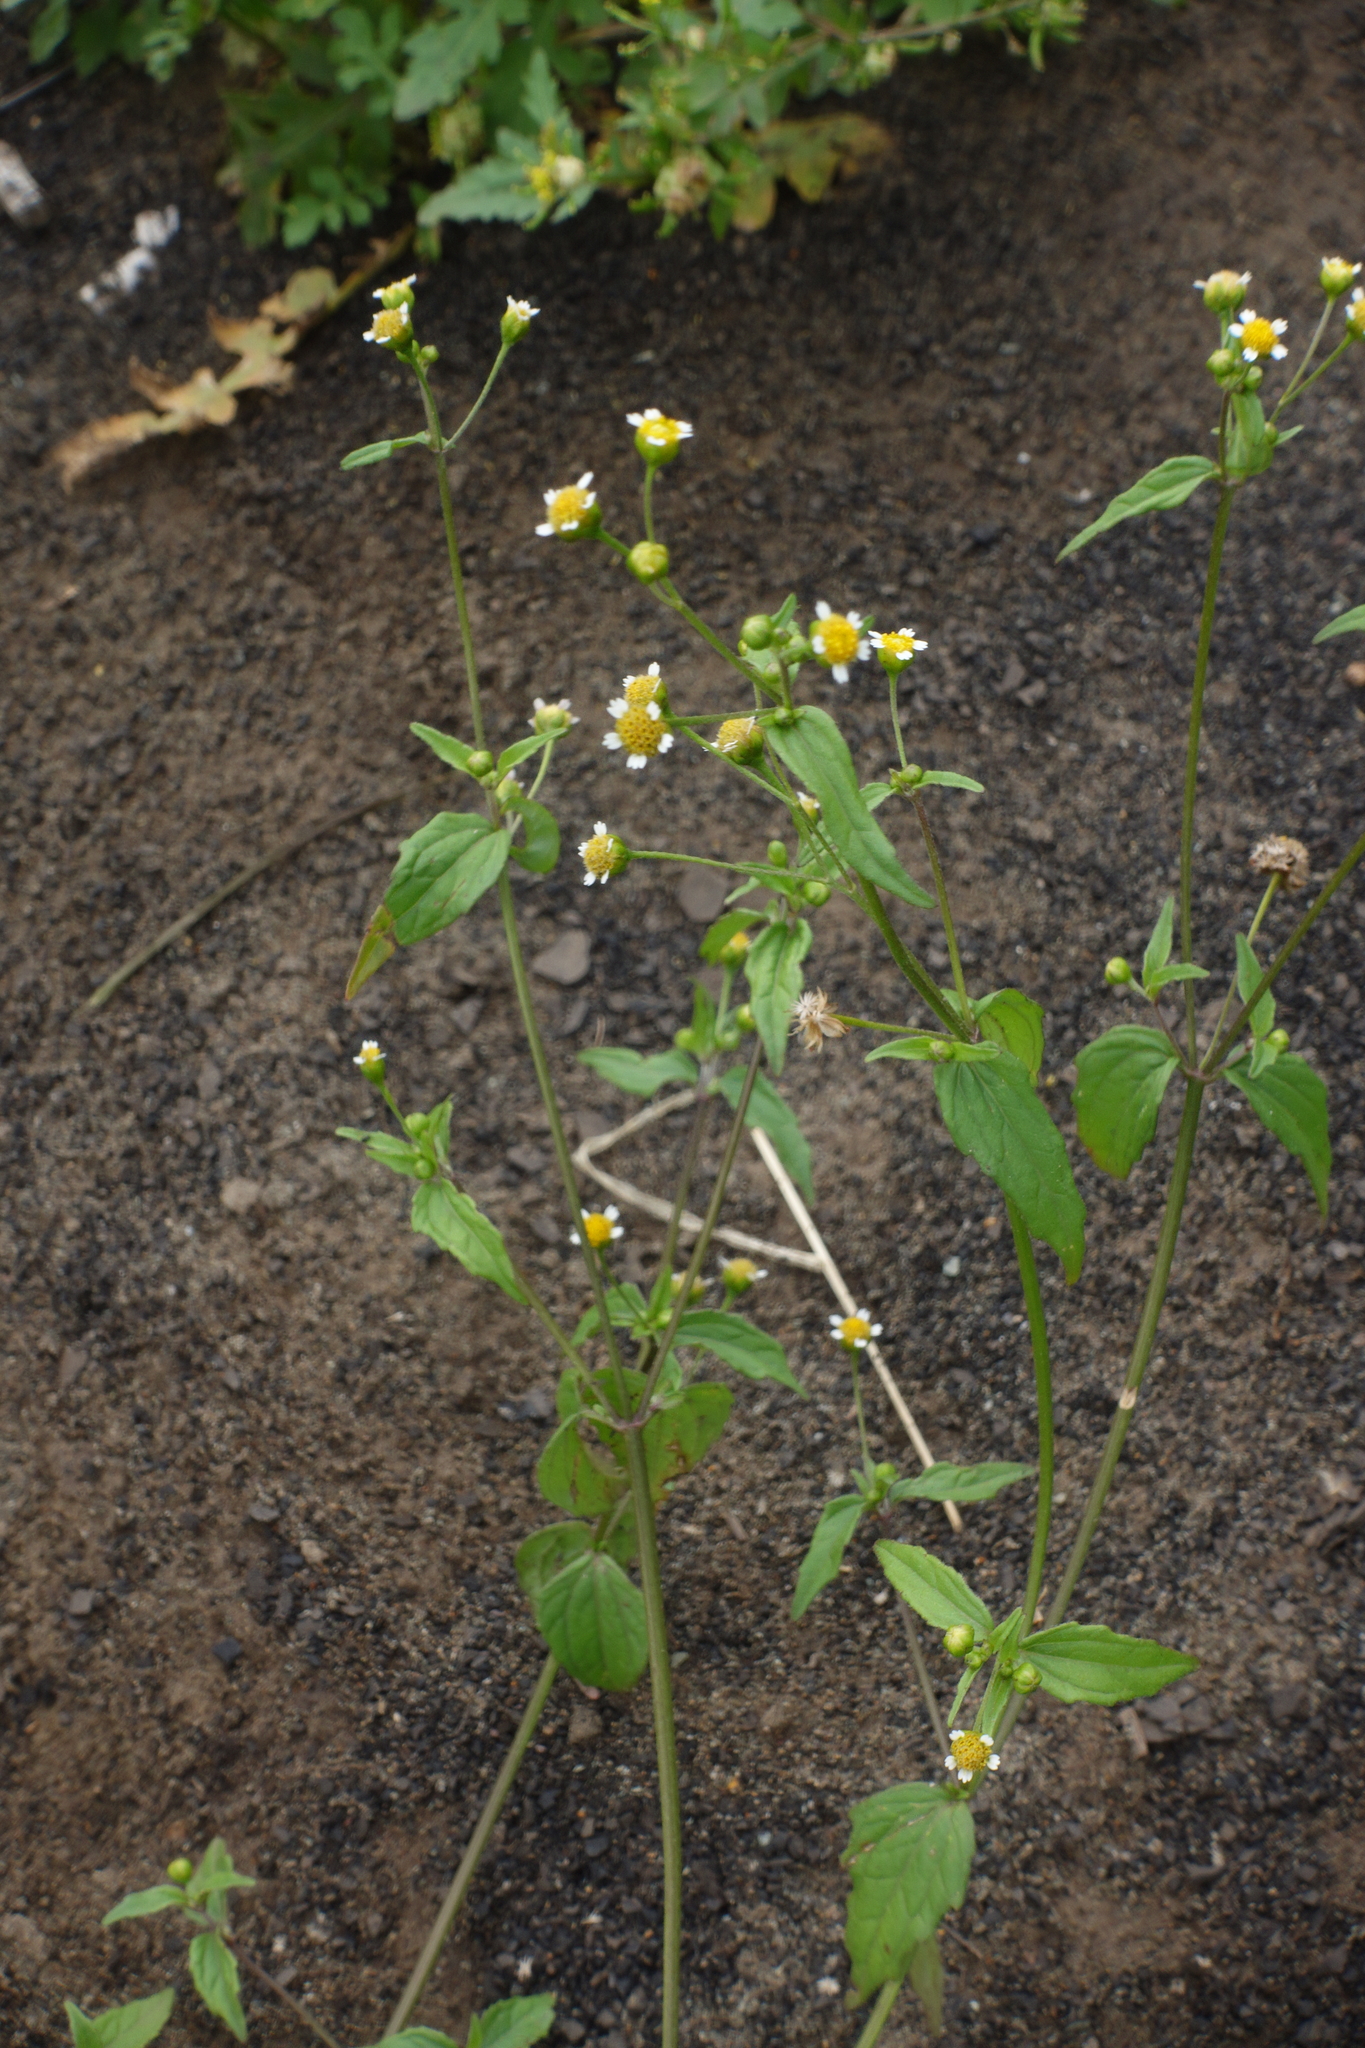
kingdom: Plantae
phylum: Tracheophyta
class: Magnoliopsida
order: Asterales
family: Asteraceae
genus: Galinsoga
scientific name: Galinsoga parviflora
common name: Gallant soldier
